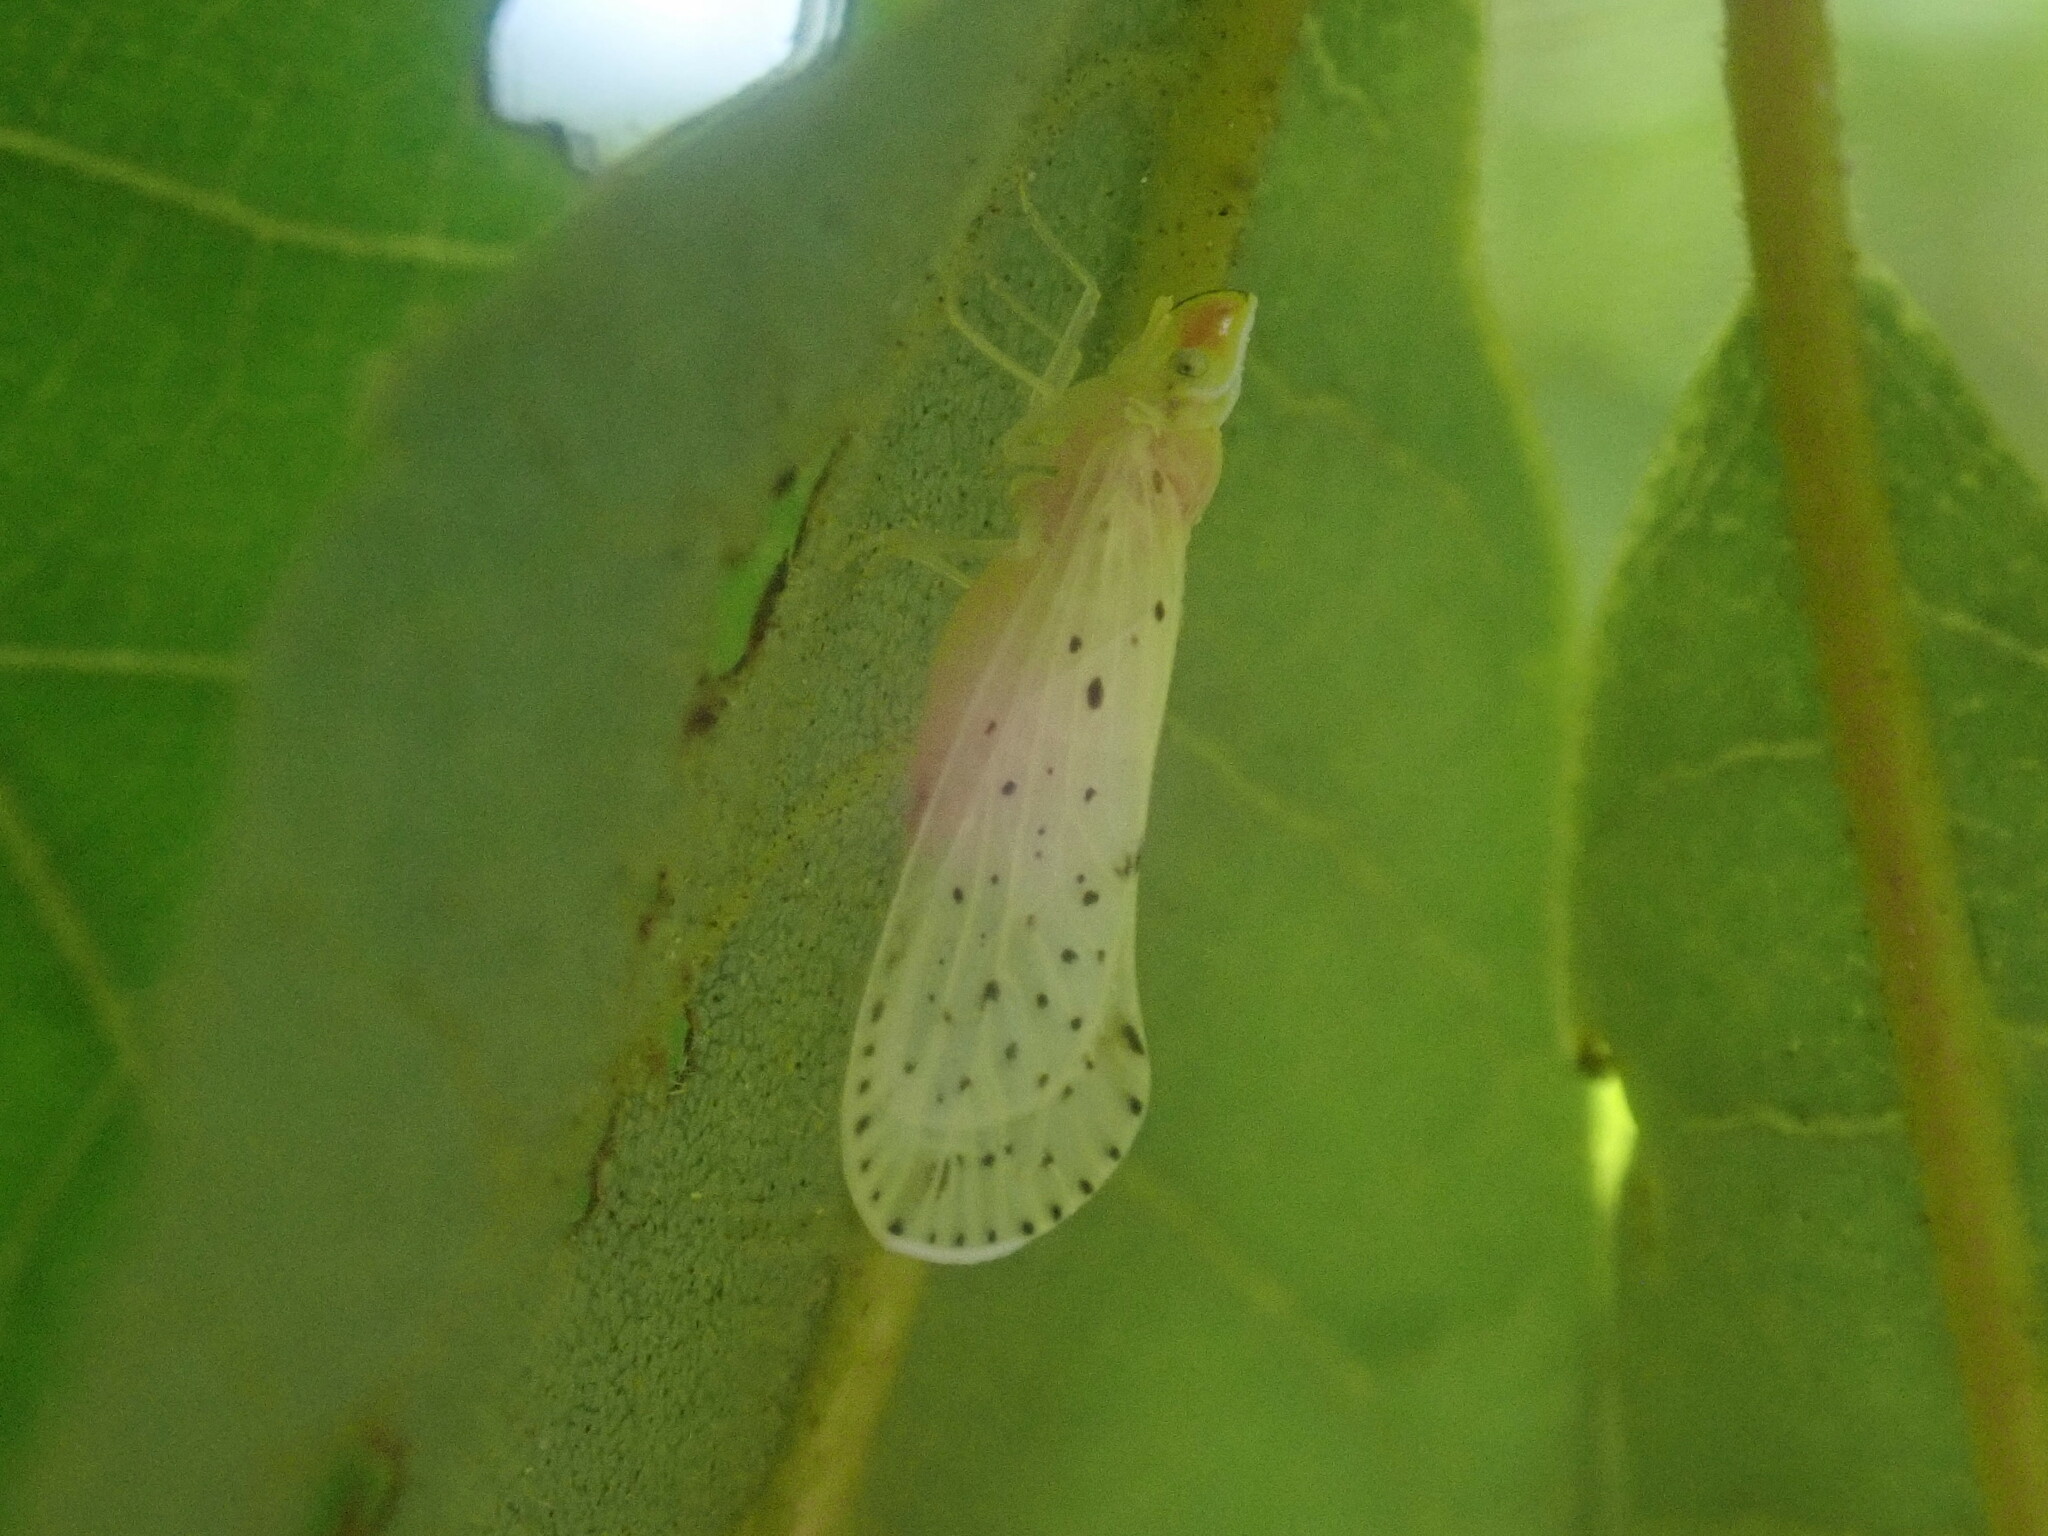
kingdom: Animalia
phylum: Arthropoda
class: Insecta
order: Hemiptera
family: Derbidae
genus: Otiocerus
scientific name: Otiocerus abbotii
